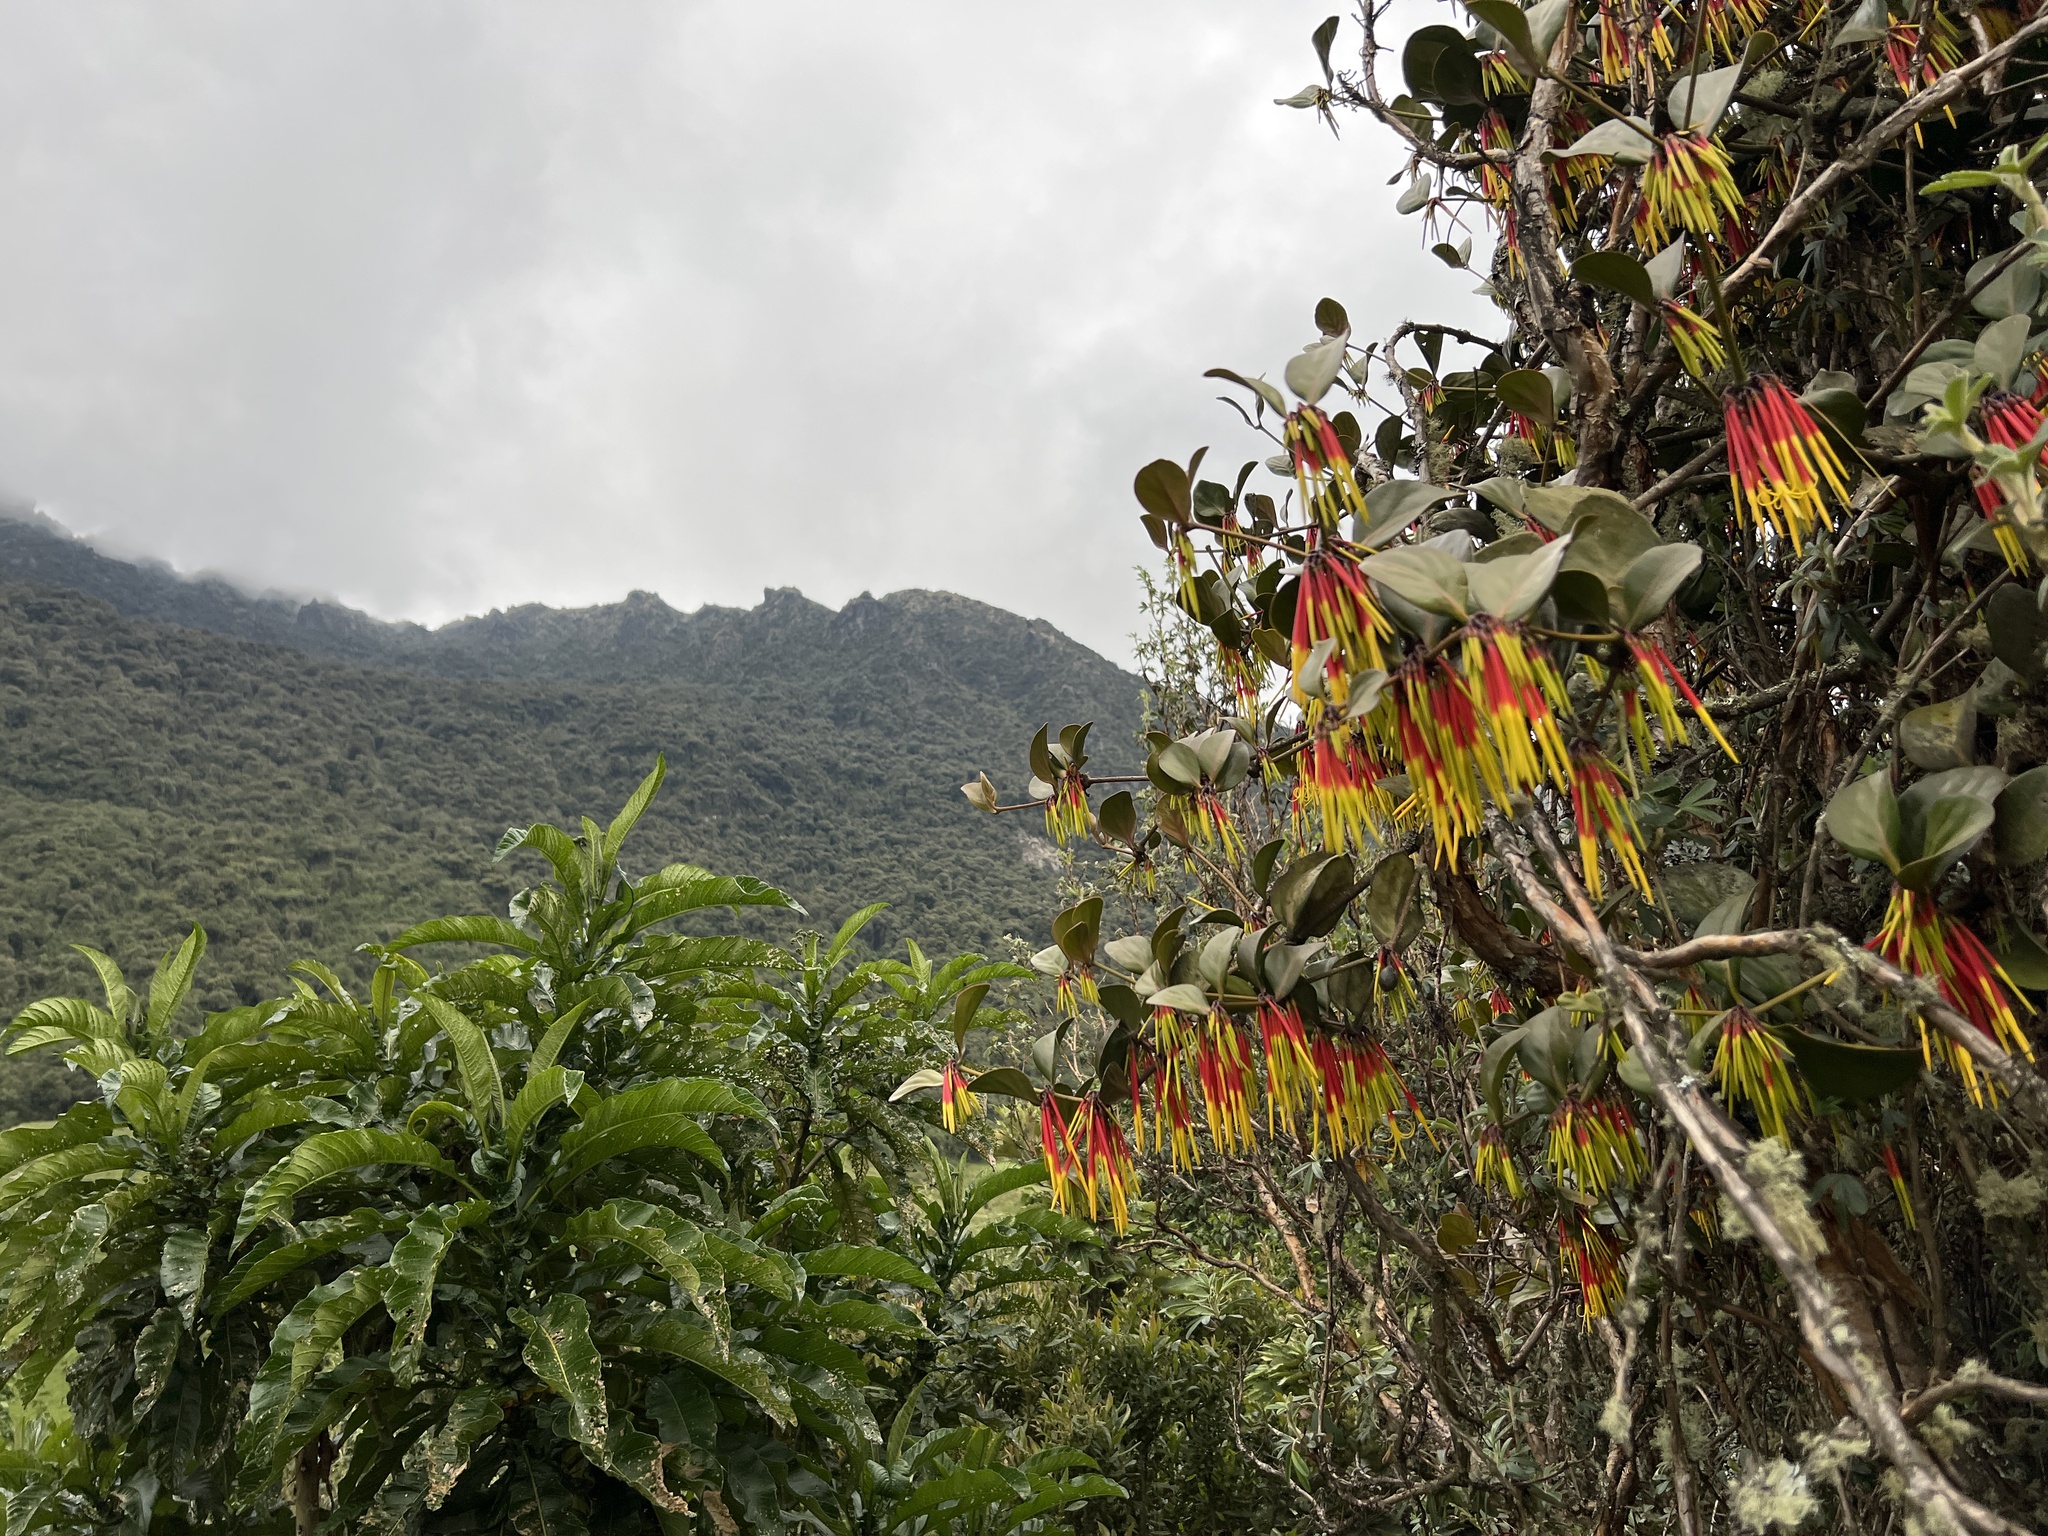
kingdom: Plantae
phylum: Tracheophyta
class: Magnoliopsida
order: Santalales
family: Loranthaceae
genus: Aetanthus
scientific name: Aetanthus nodosus
